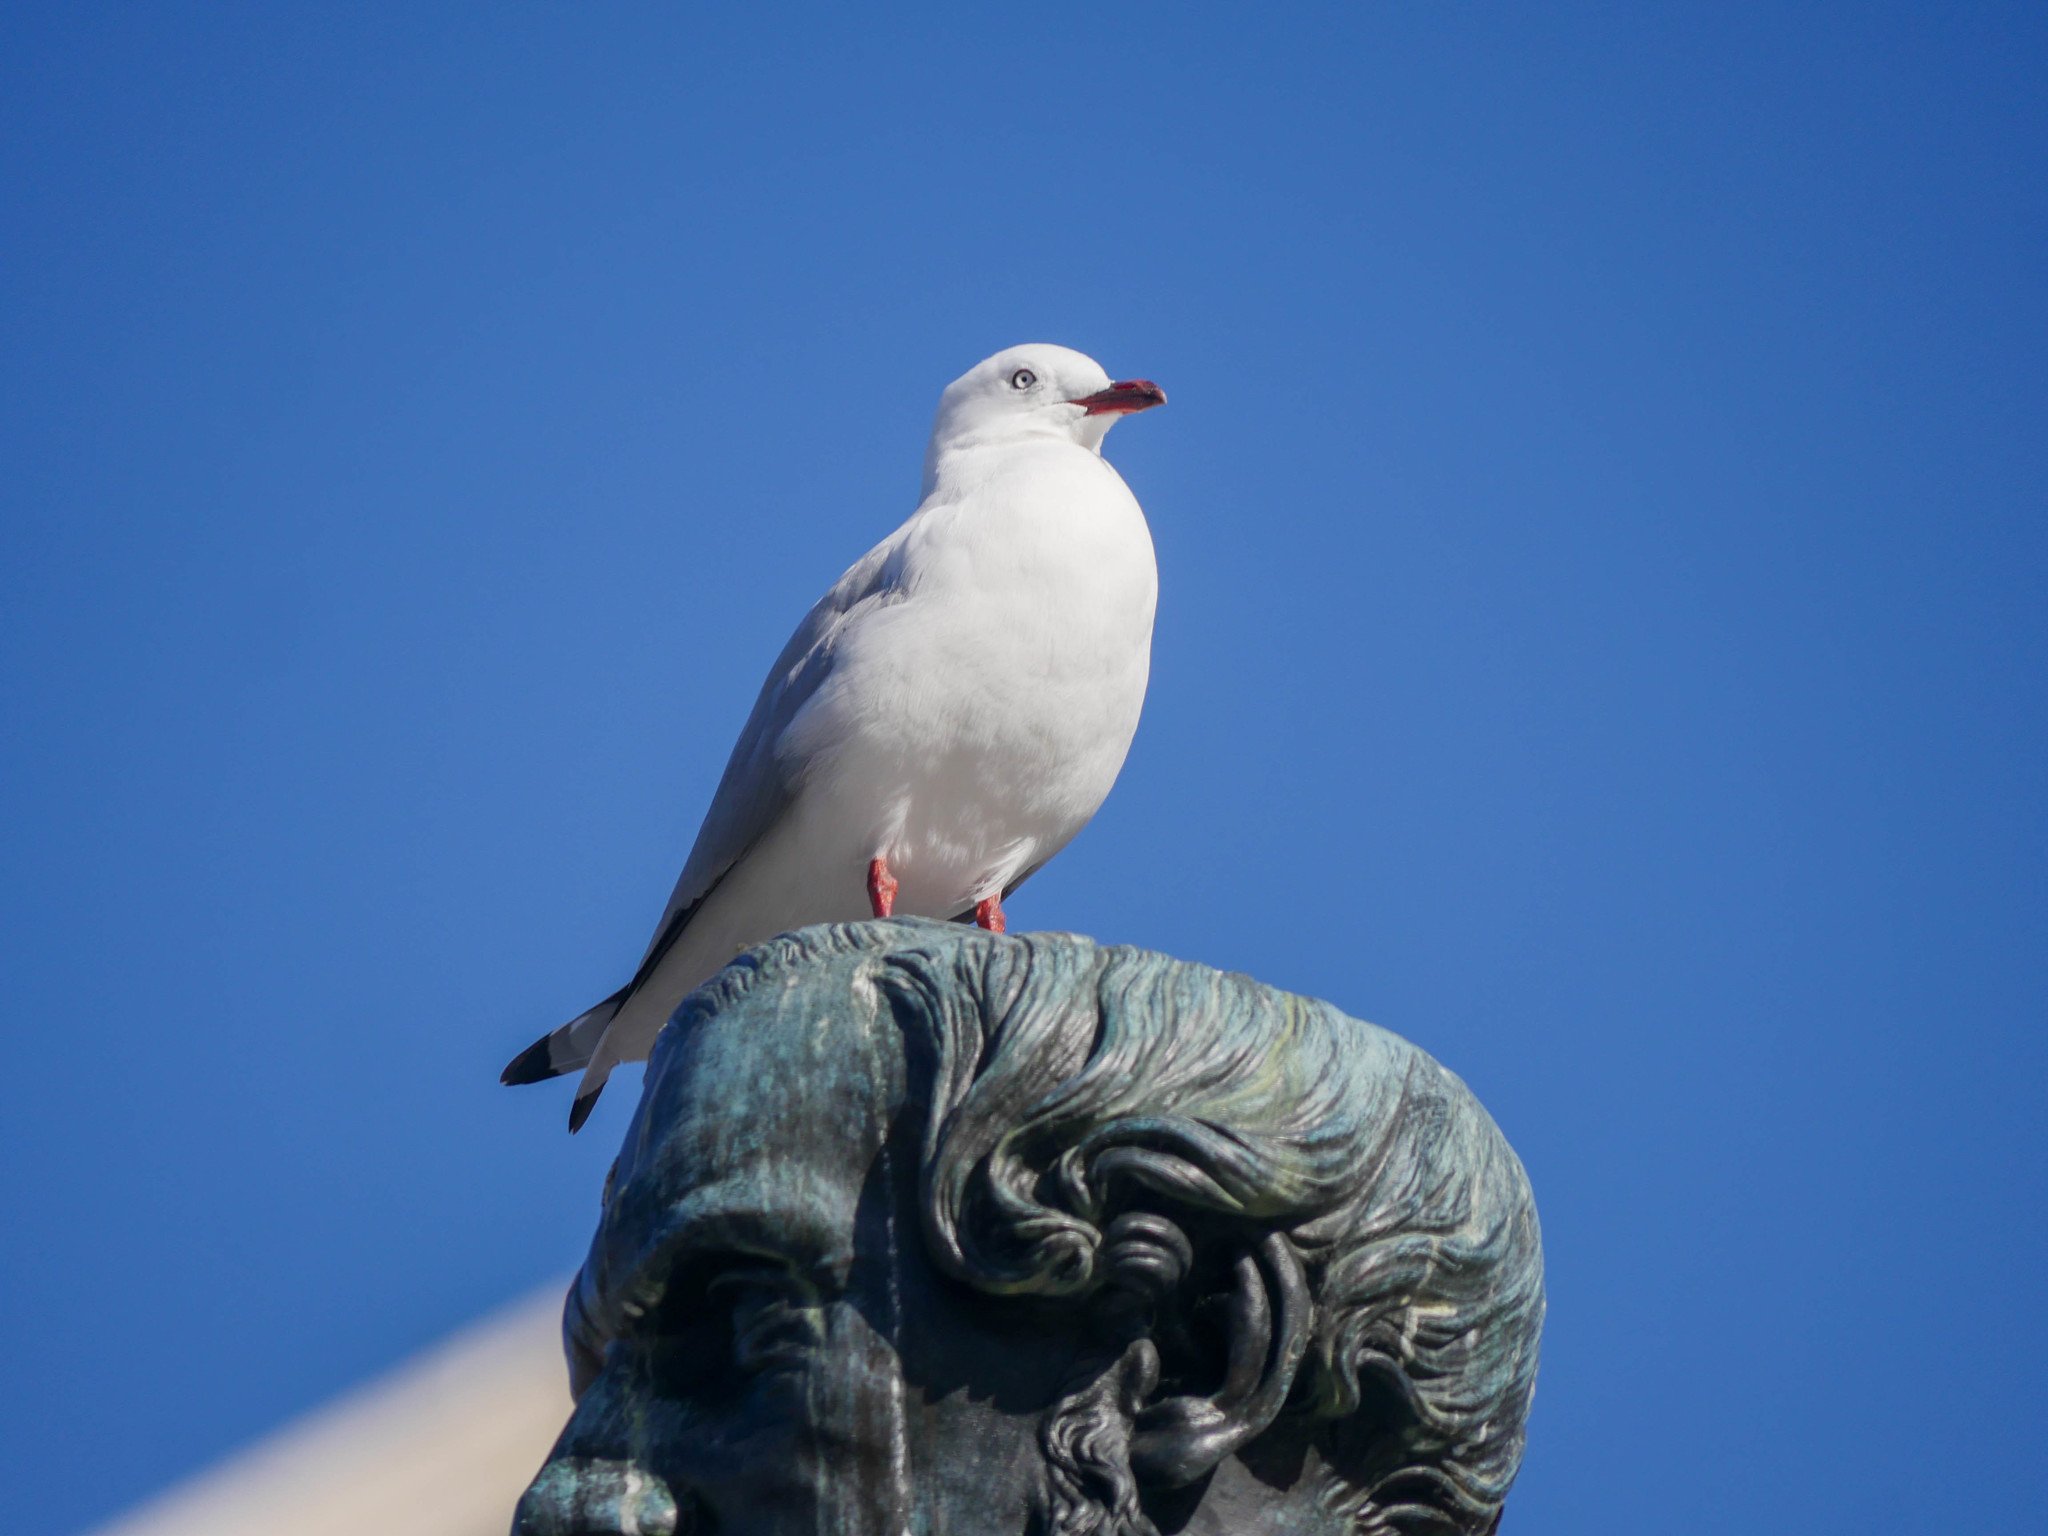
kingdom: Animalia
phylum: Chordata
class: Aves
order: Charadriiformes
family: Laridae
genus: Chroicocephalus
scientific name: Chroicocephalus novaehollandiae
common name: Silver gull
